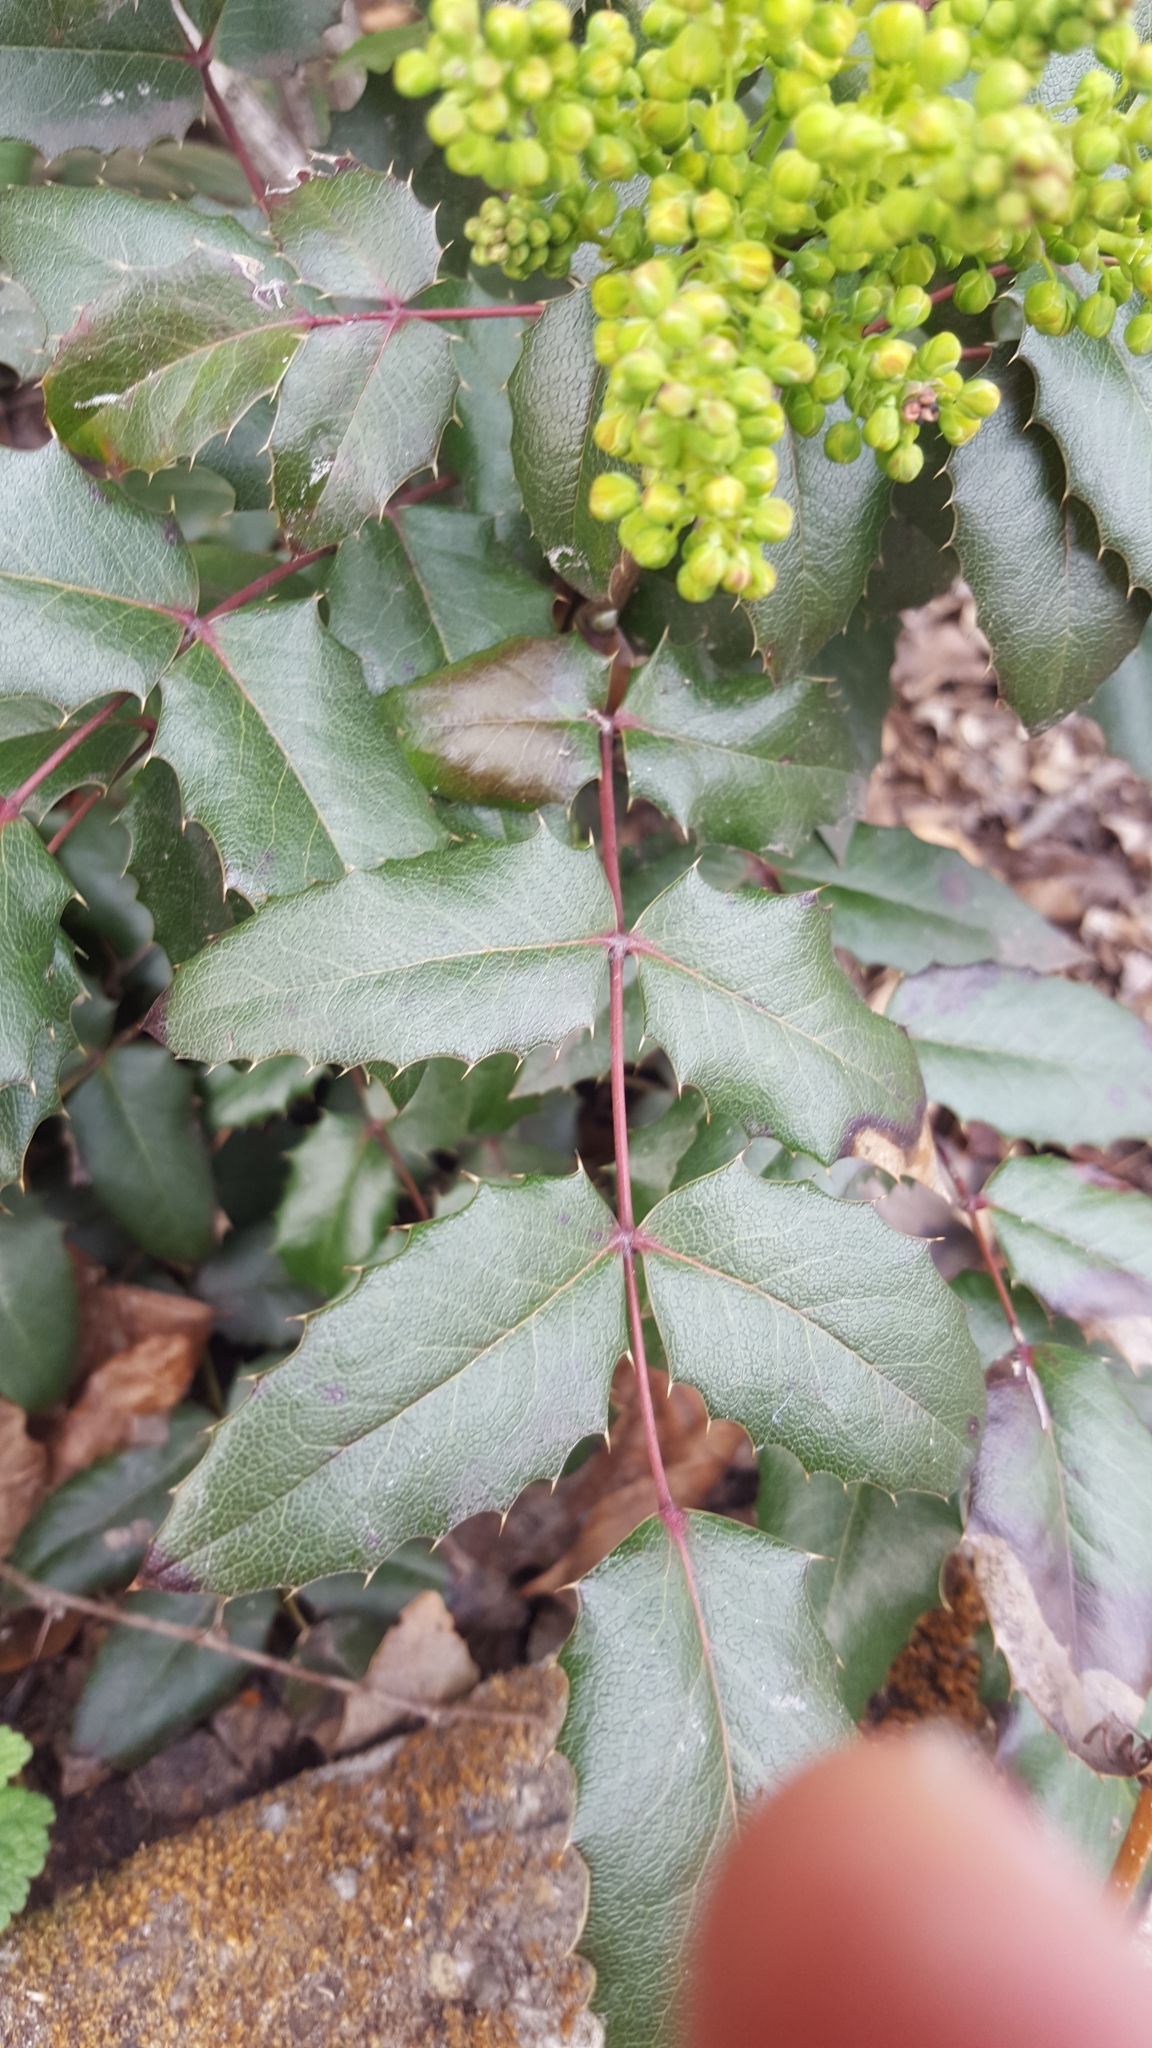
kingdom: Plantae
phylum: Tracheophyta
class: Magnoliopsida
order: Ranunculales
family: Berberidaceae
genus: Mahonia
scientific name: Mahonia aquifolium
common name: Oregon-grape
